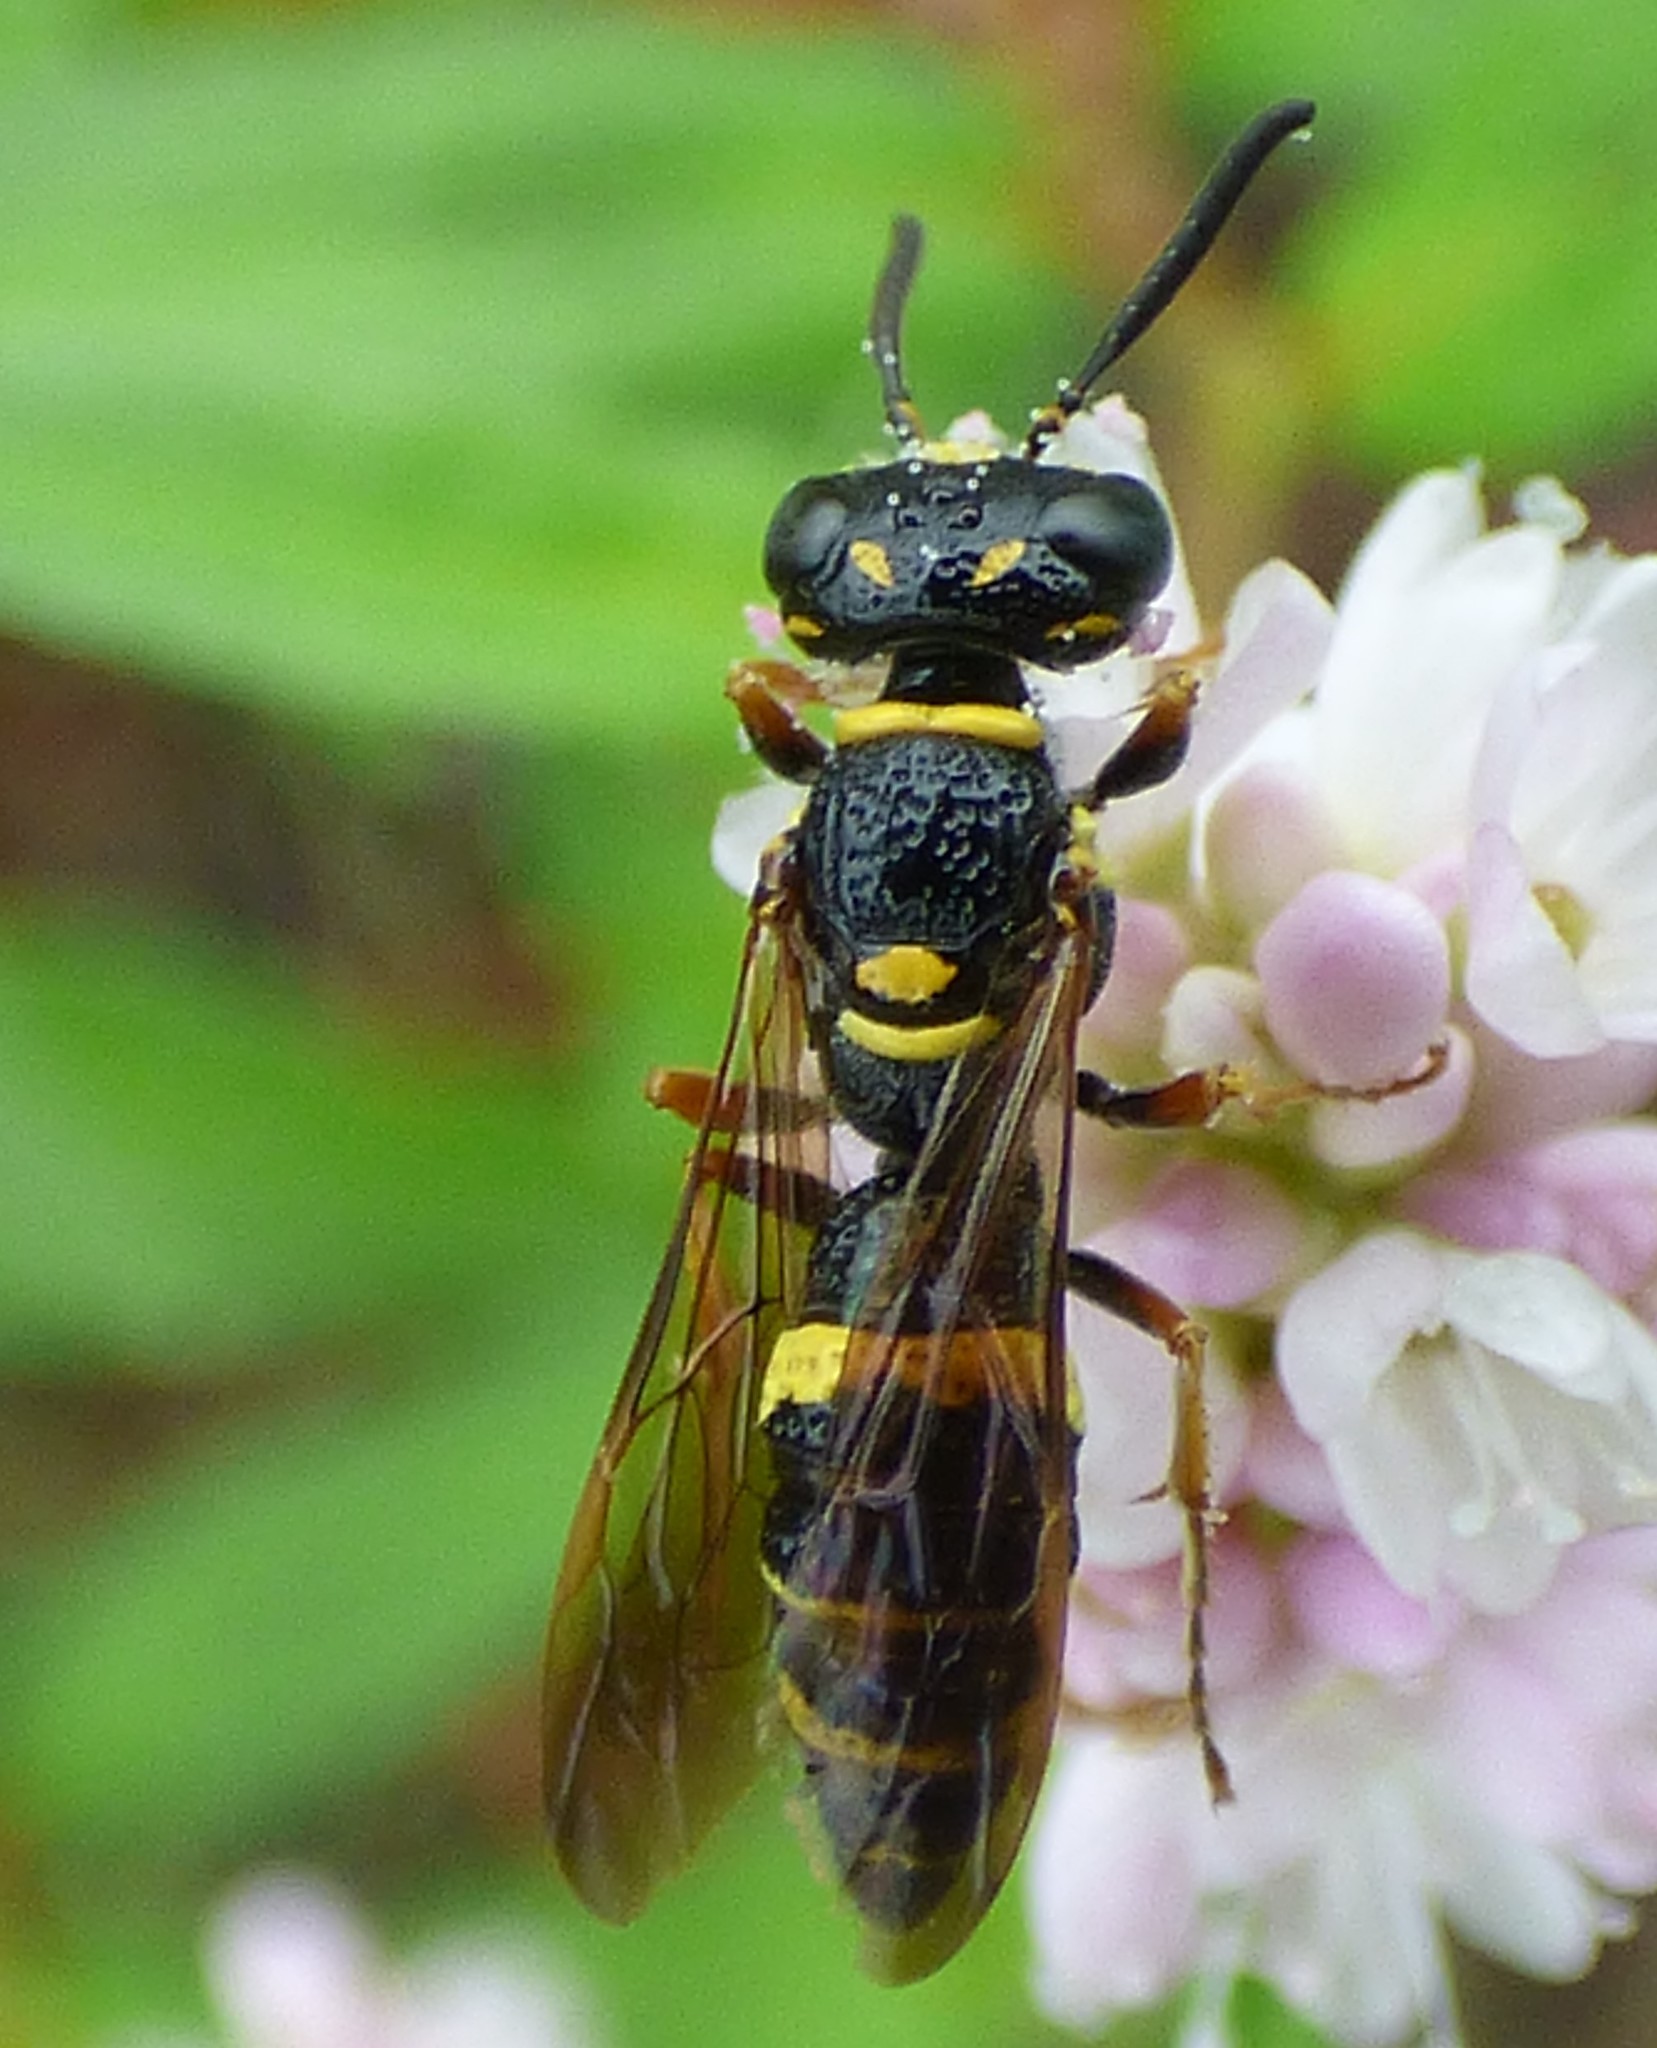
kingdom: Animalia
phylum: Arthropoda
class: Insecta
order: Hymenoptera
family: Crabronidae
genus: Philanthus
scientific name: Philanthus gibbosus
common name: Humped beewolf
